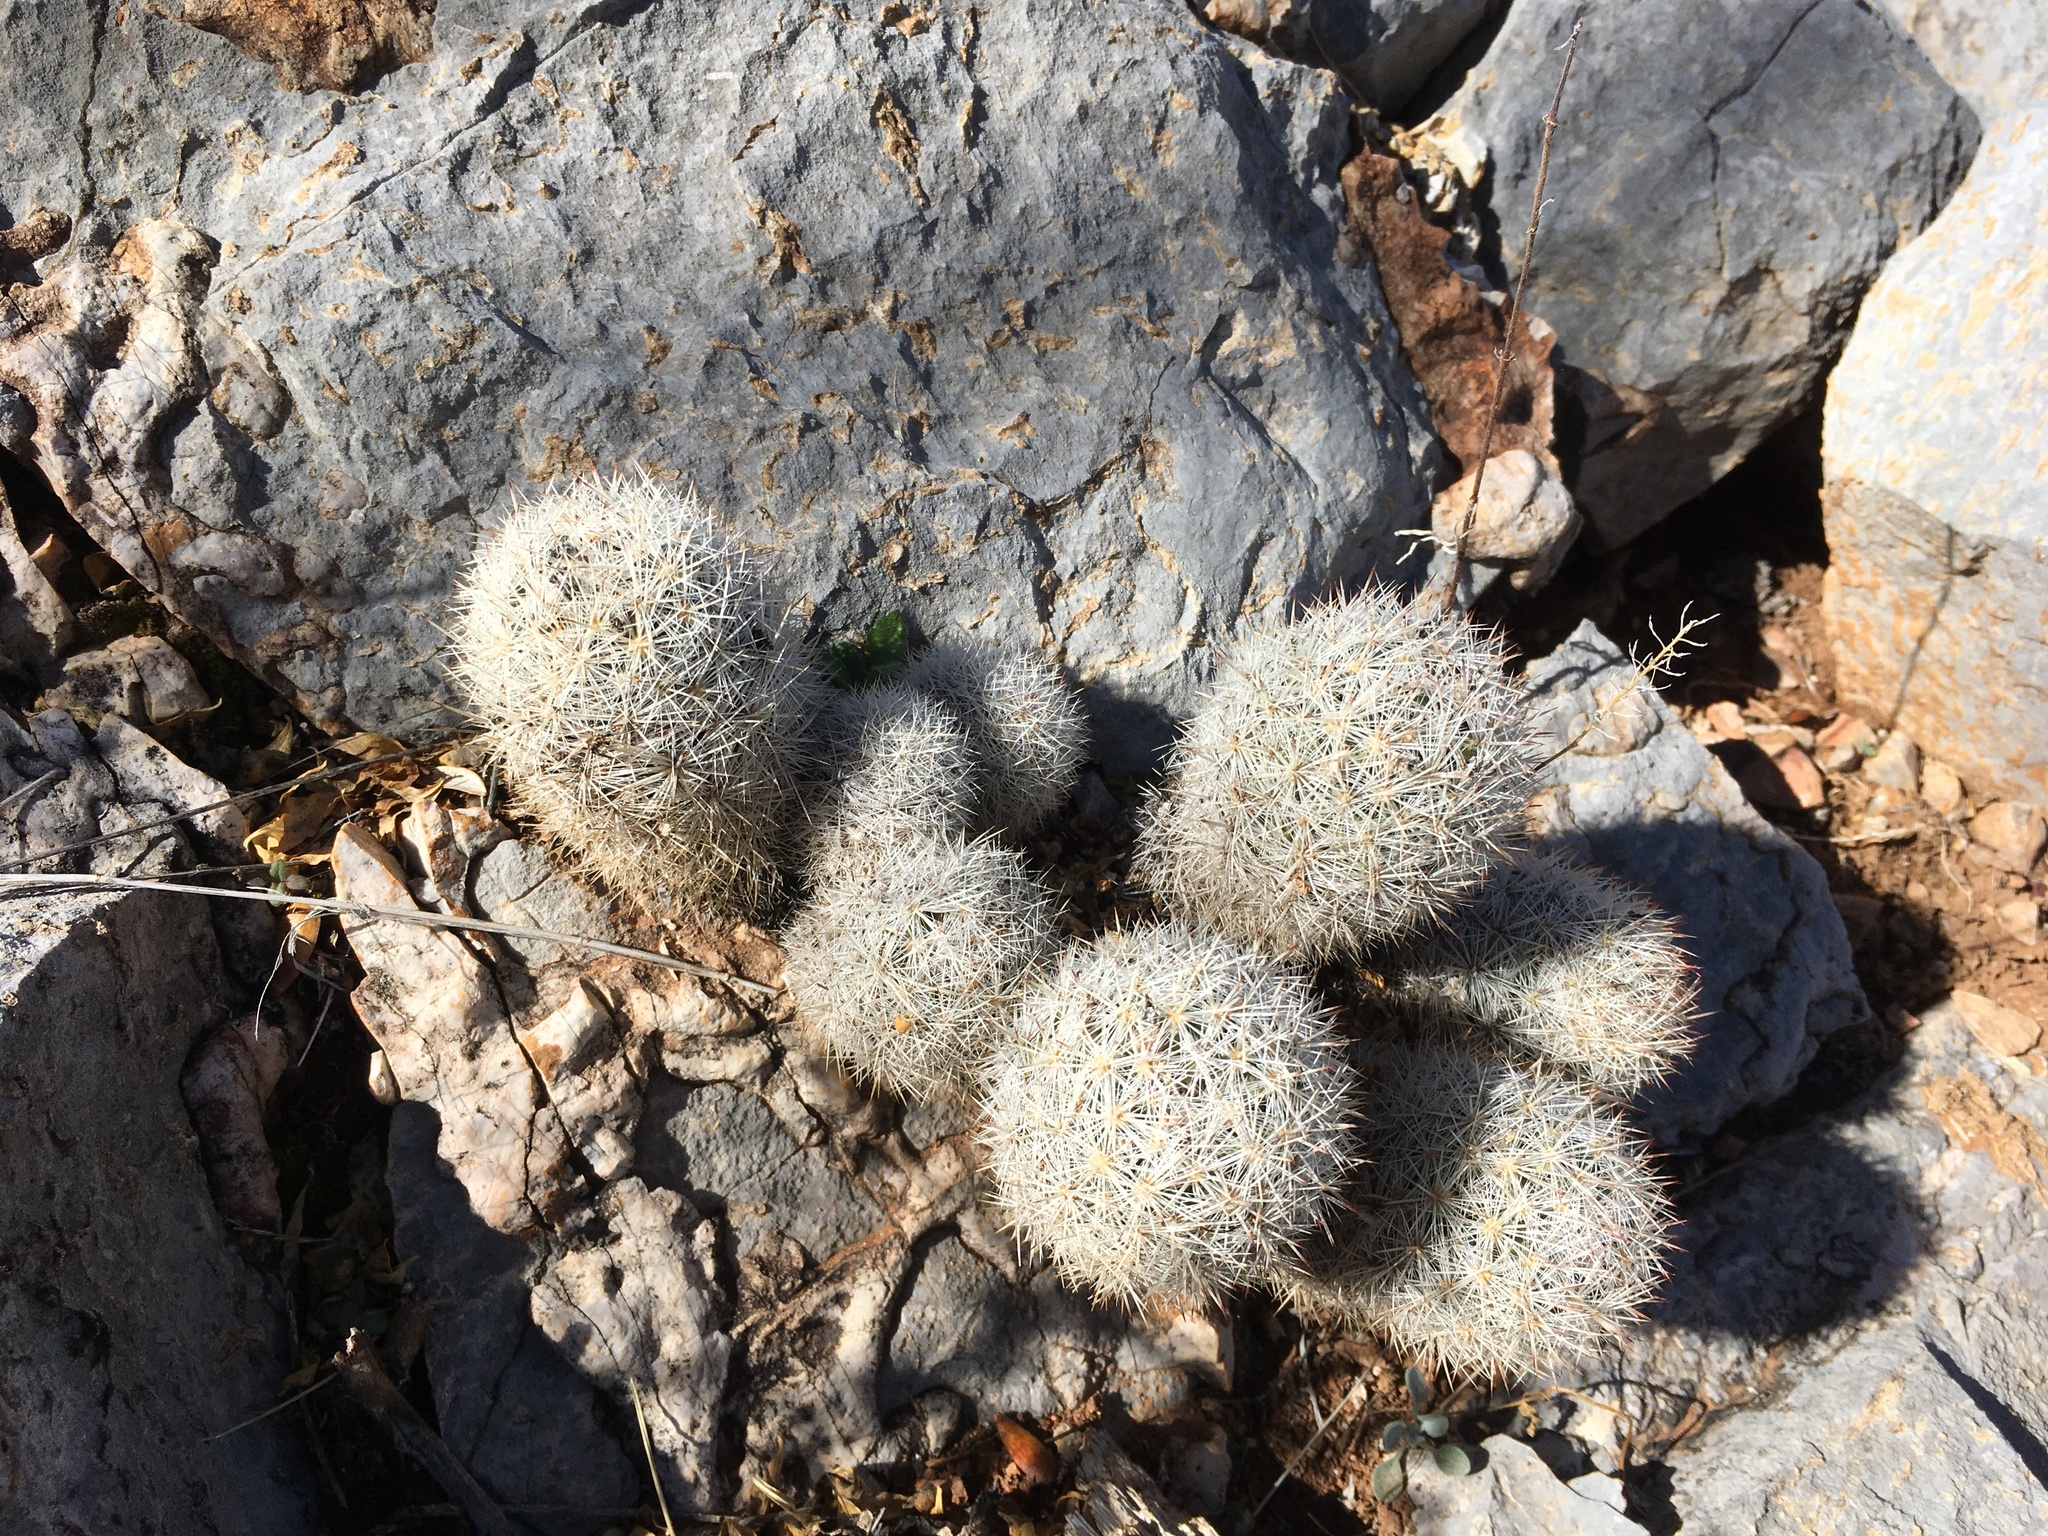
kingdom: Plantae
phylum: Tracheophyta
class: Magnoliopsida
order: Caryophyllales
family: Cactaceae
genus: Pelecyphora
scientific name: Pelecyphora sneedii
